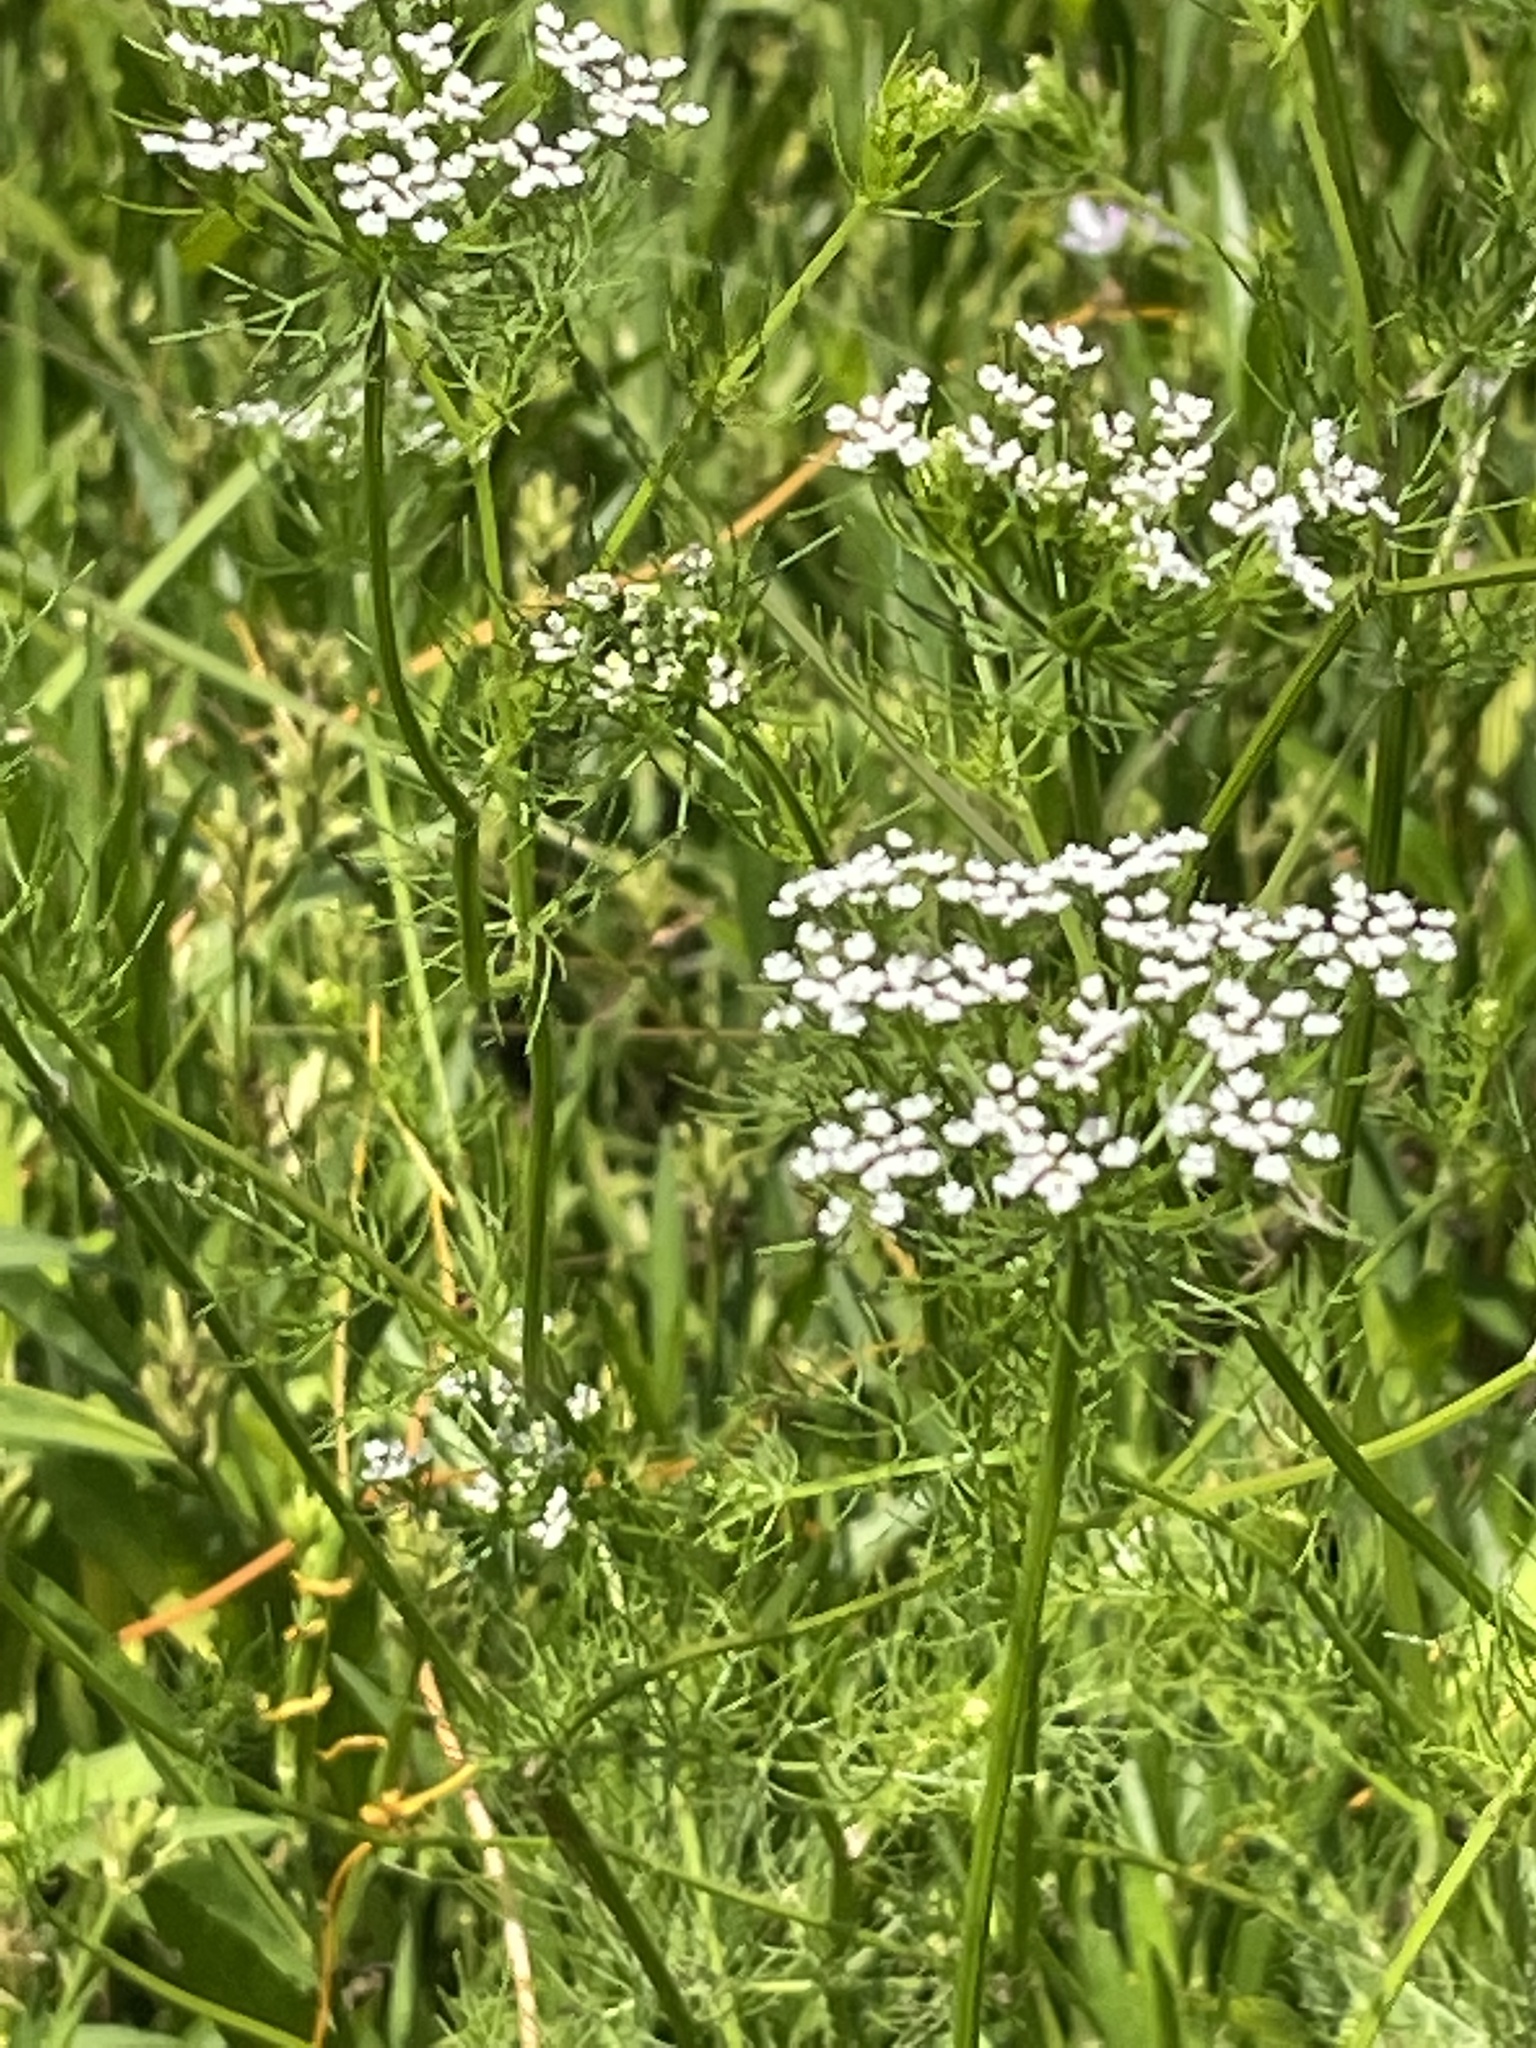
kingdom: Plantae
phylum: Tracheophyta
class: Magnoliopsida
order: Apiales
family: Apiaceae
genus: Ptilimnium
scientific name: Ptilimnium capillaceum
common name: Herbwilliam
